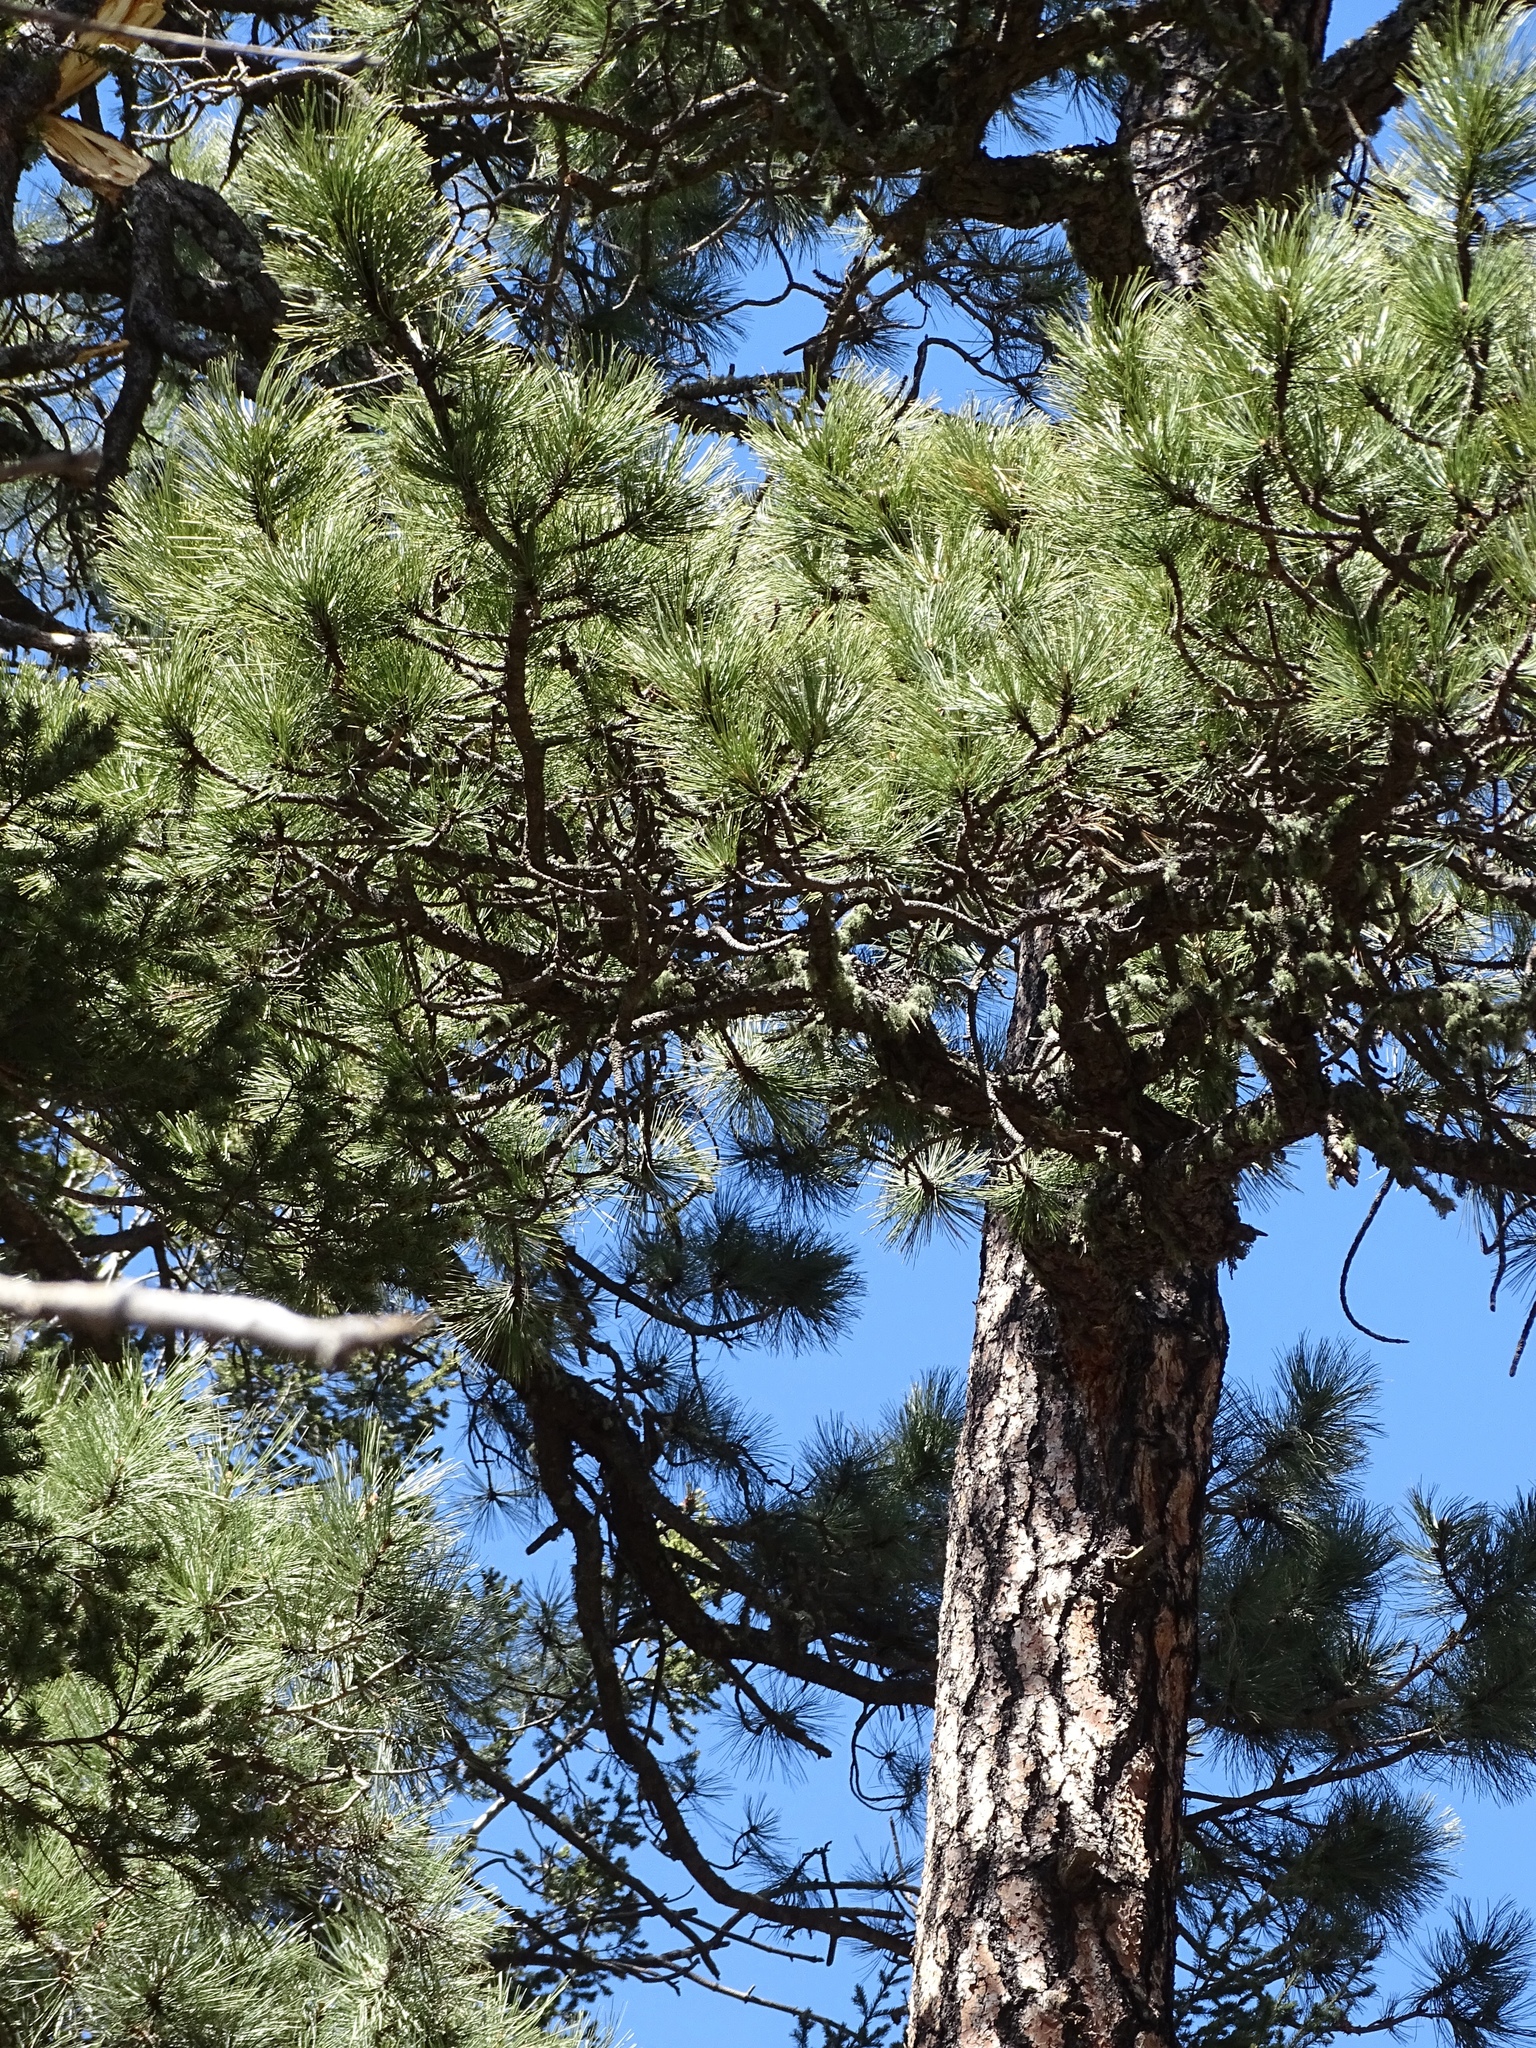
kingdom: Plantae
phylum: Tracheophyta
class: Pinopsida
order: Pinales
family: Pinaceae
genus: Pinus
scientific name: Pinus ponderosa
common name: Western yellow-pine
